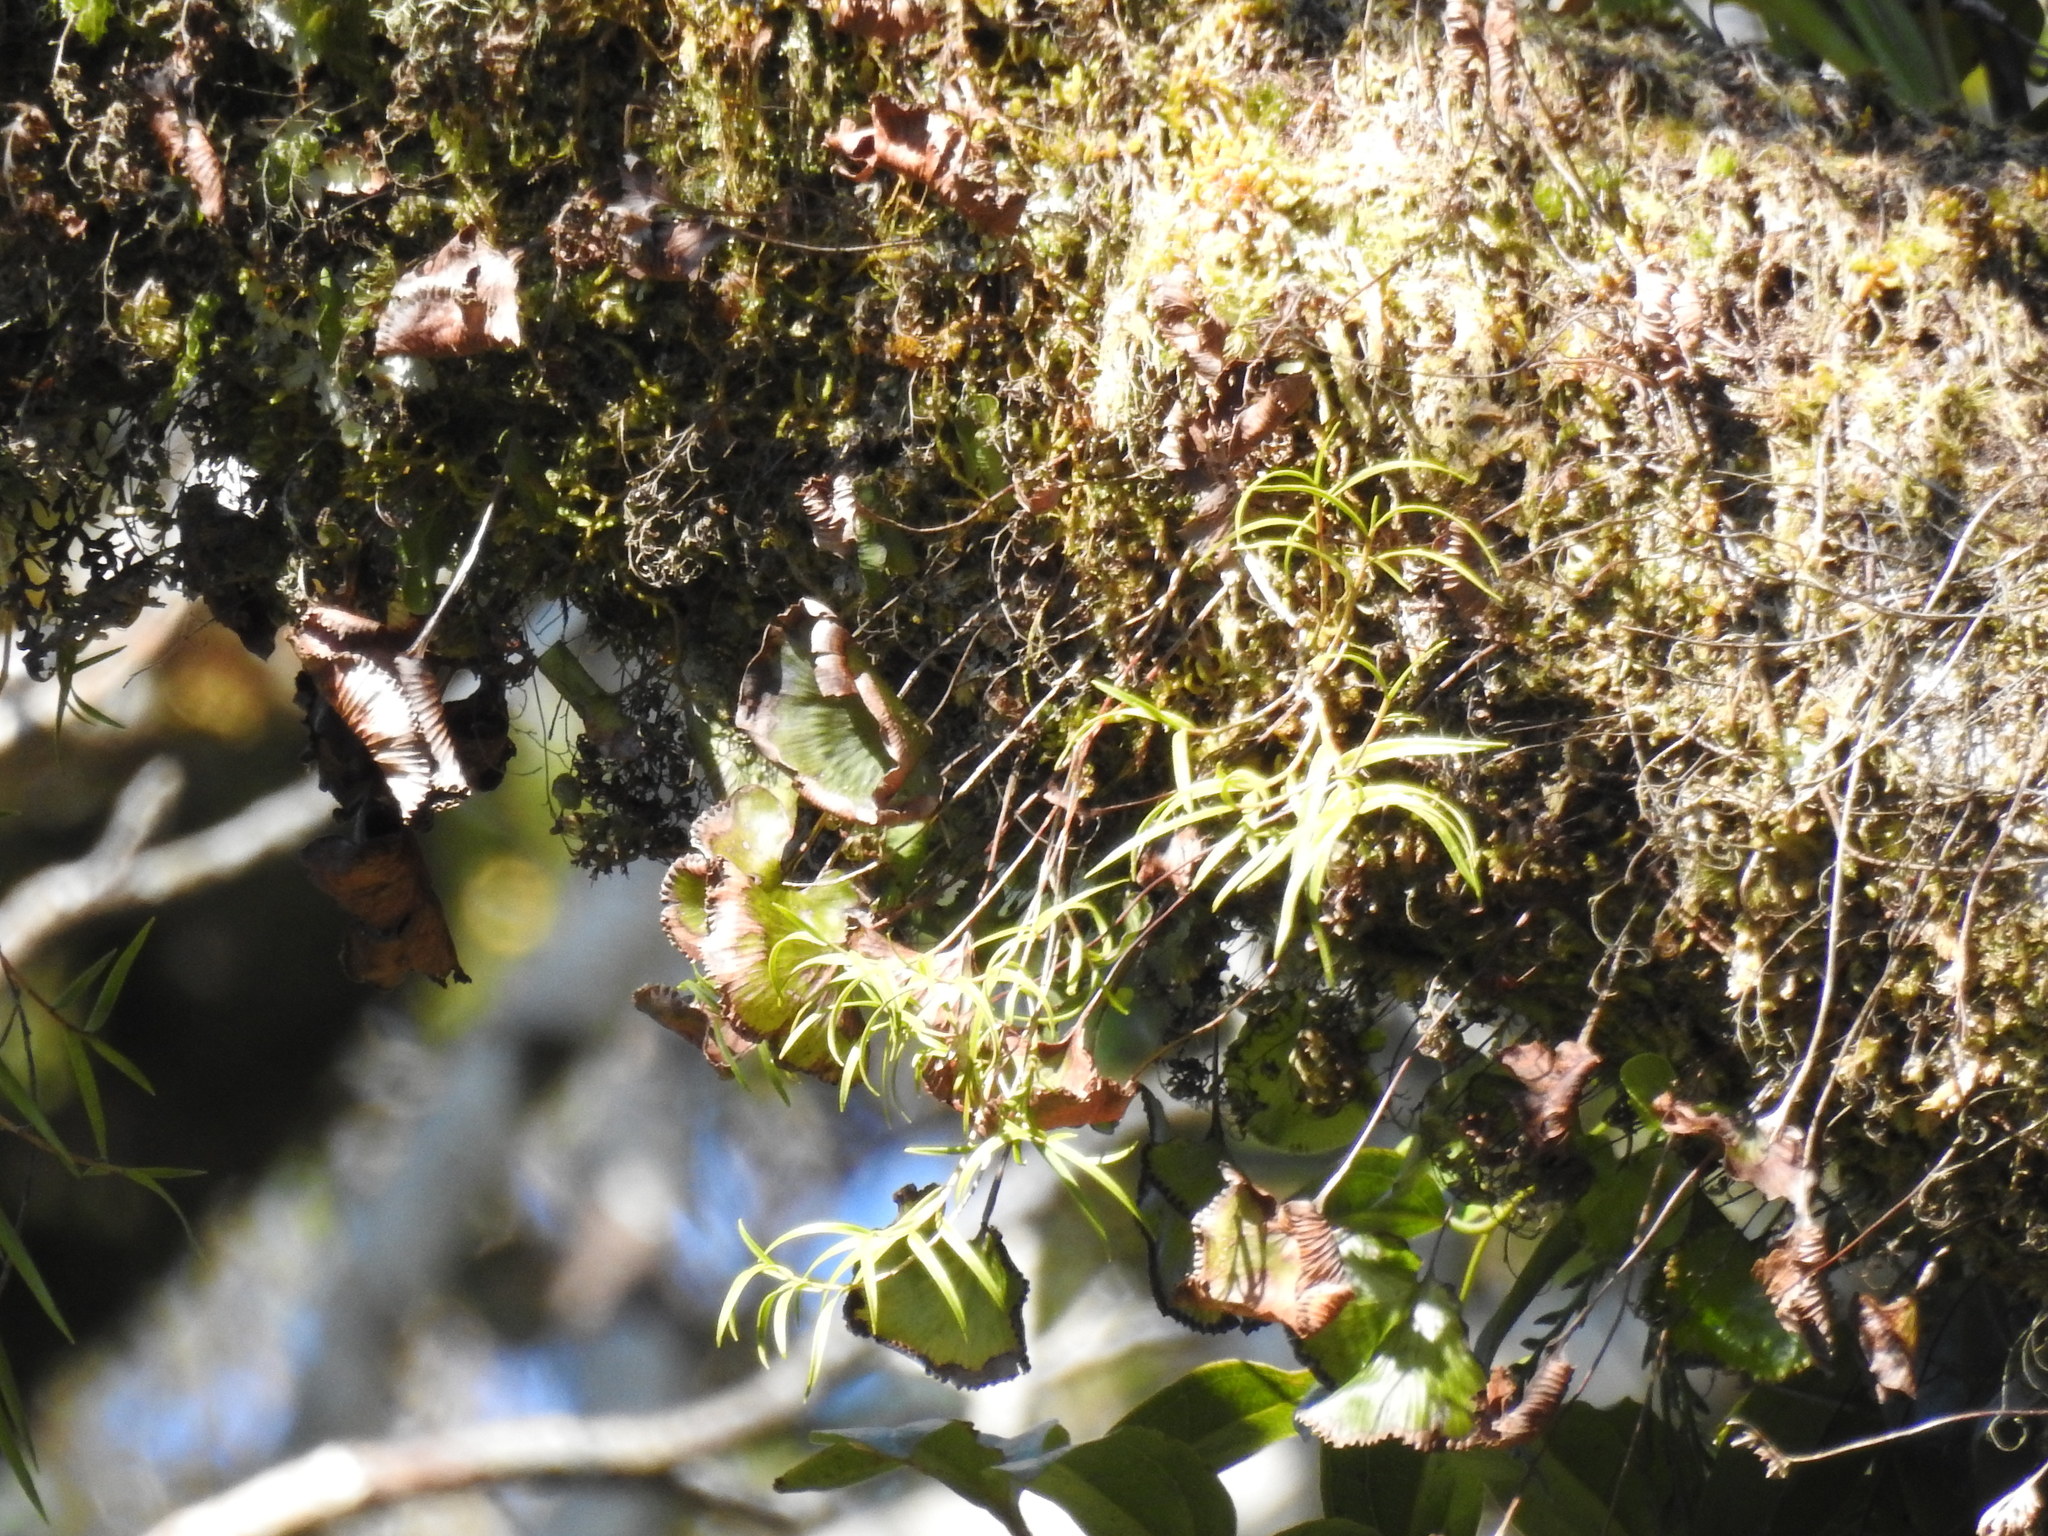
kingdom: Plantae
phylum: Tracheophyta
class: Liliopsida
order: Asparagales
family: Orchidaceae
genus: Dendrobium
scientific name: Dendrobium cunninghamii
